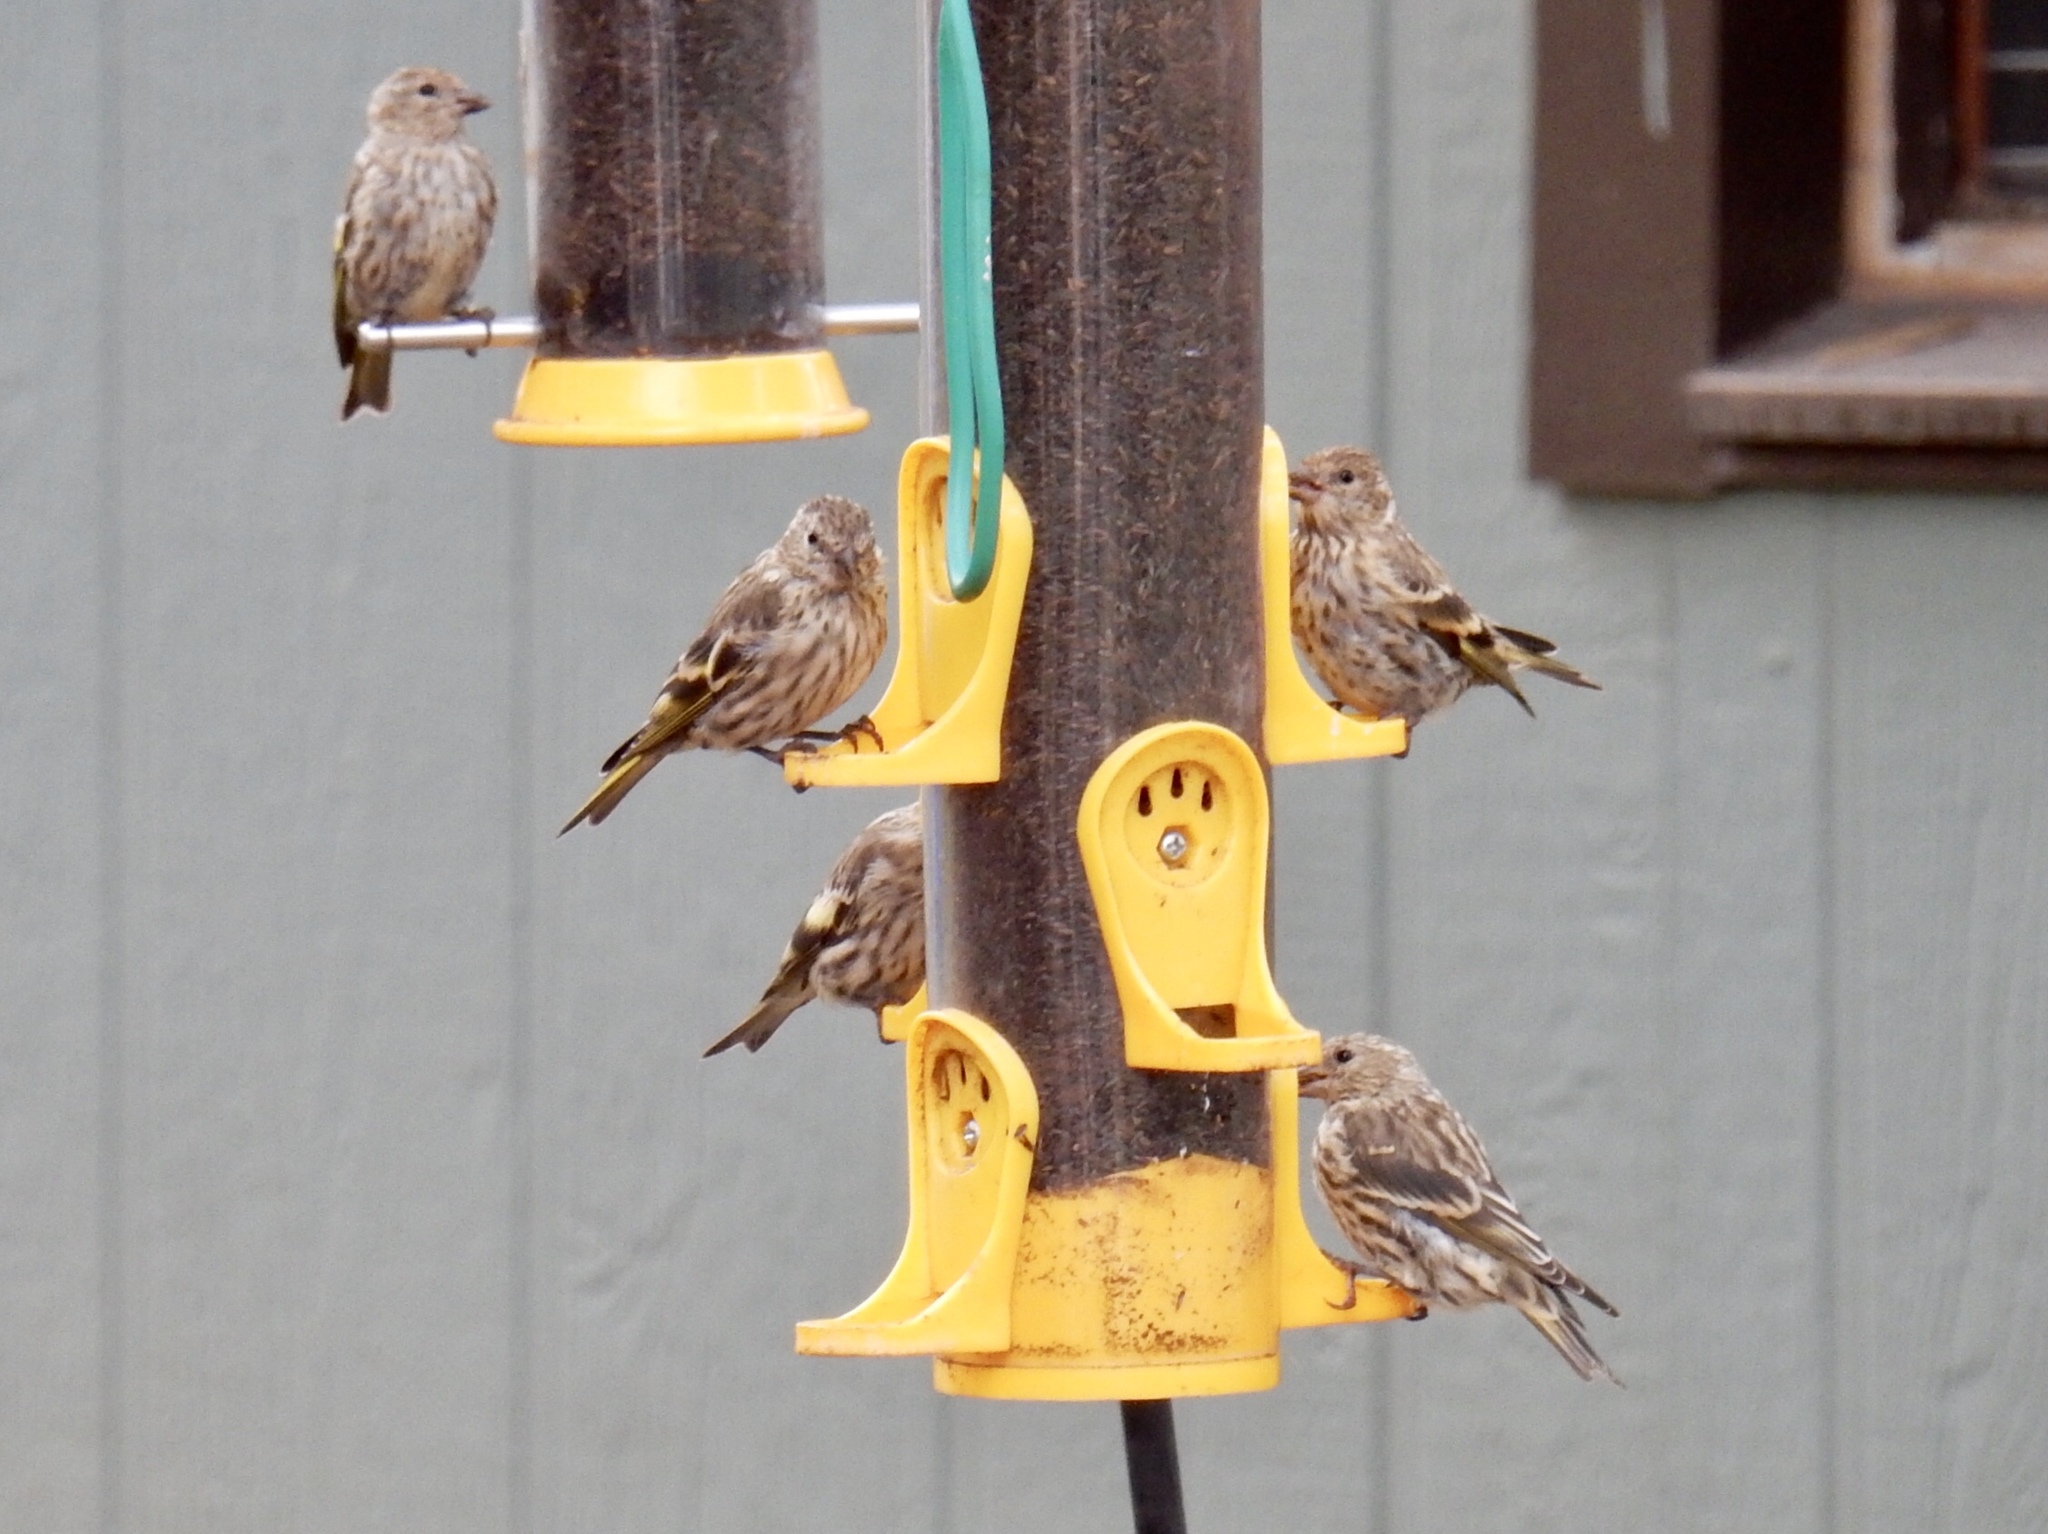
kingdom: Animalia
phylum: Chordata
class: Aves
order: Passeriformes
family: Fringillidae
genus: Spinus
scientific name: Spinus pinus
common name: Pine siskin
